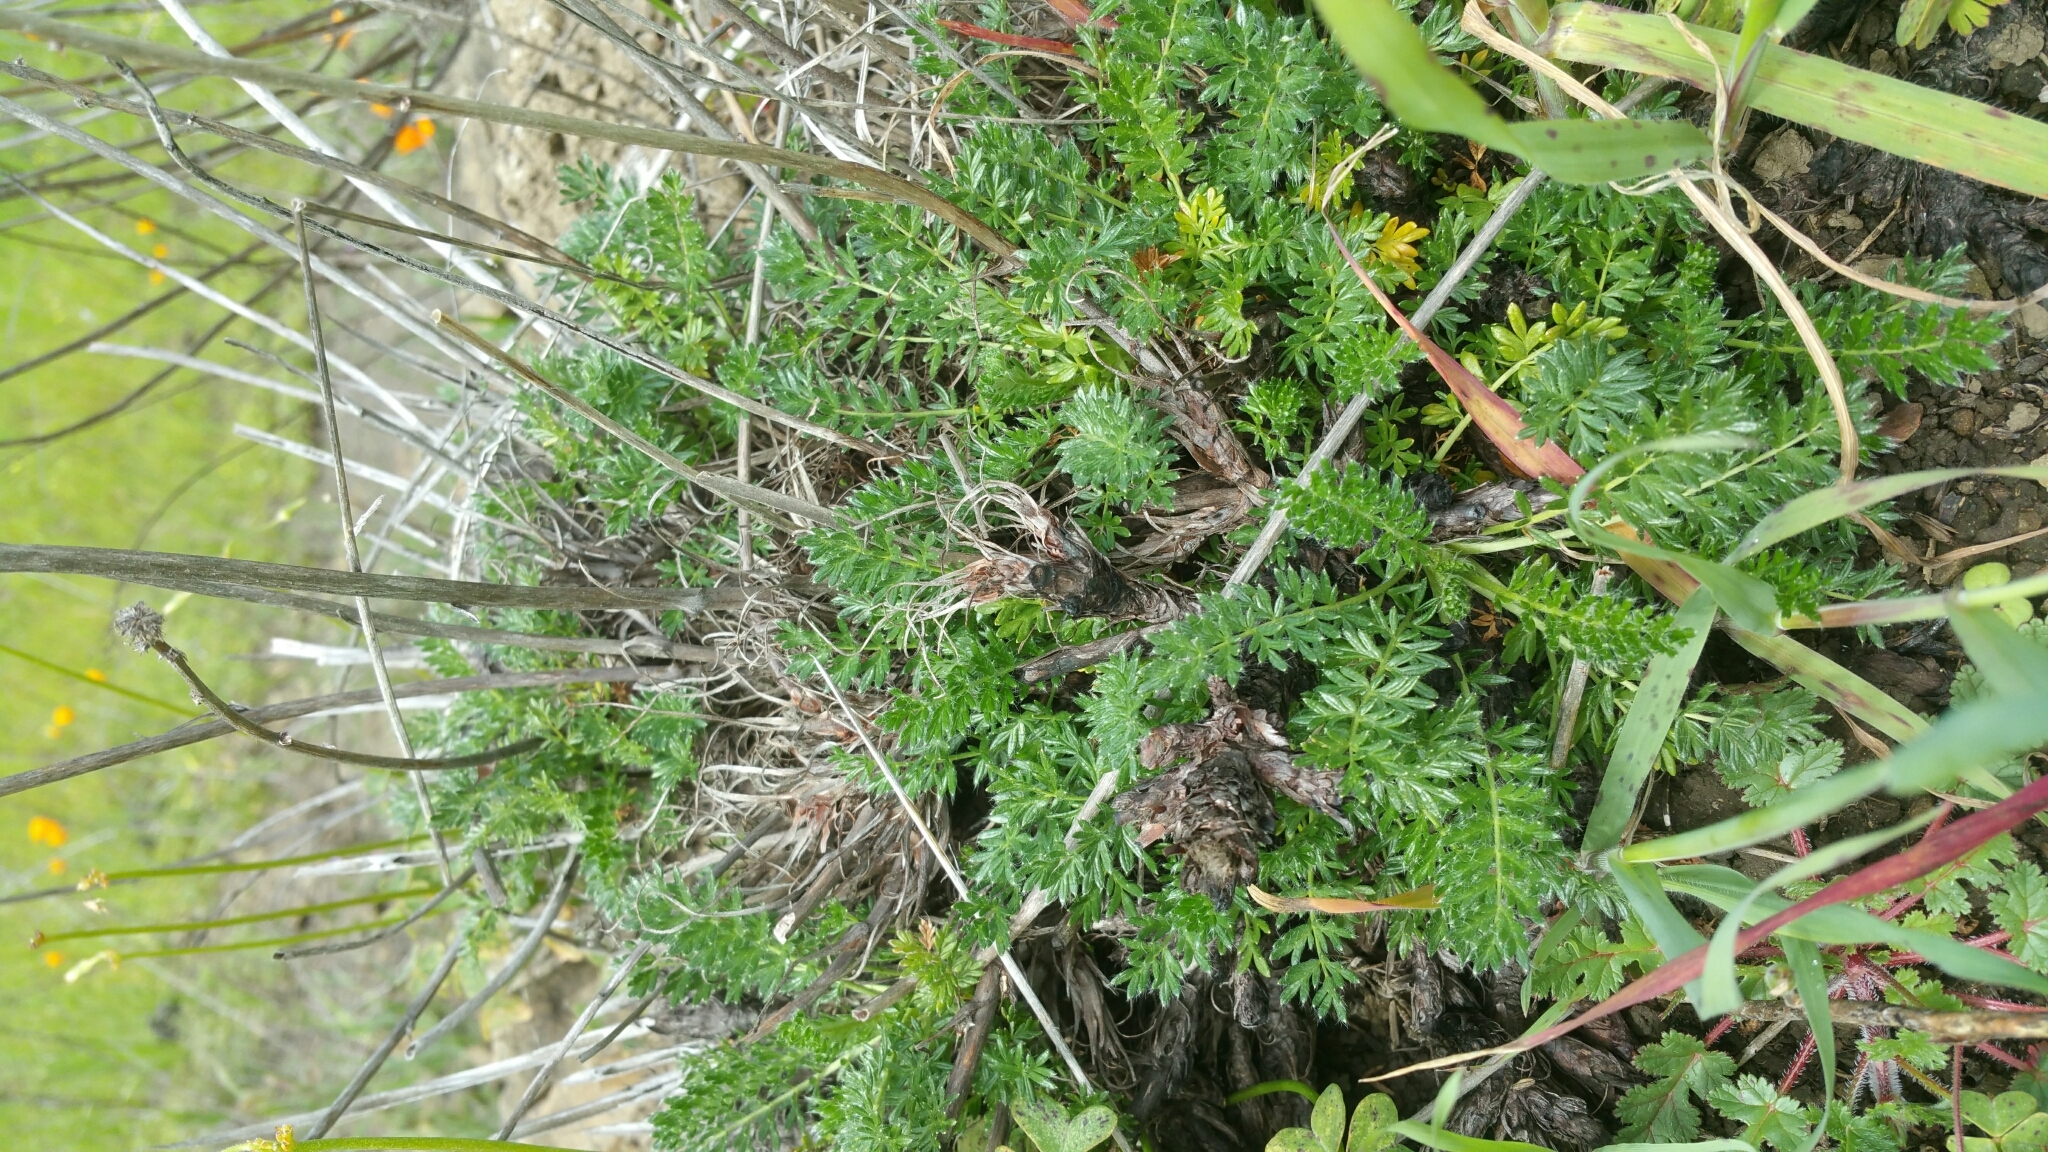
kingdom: Plantae
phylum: Tracheophyta
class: Magnoliopsida
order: Rosales
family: Rosaceae
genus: Acaena
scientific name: Acaena pinnatifida
